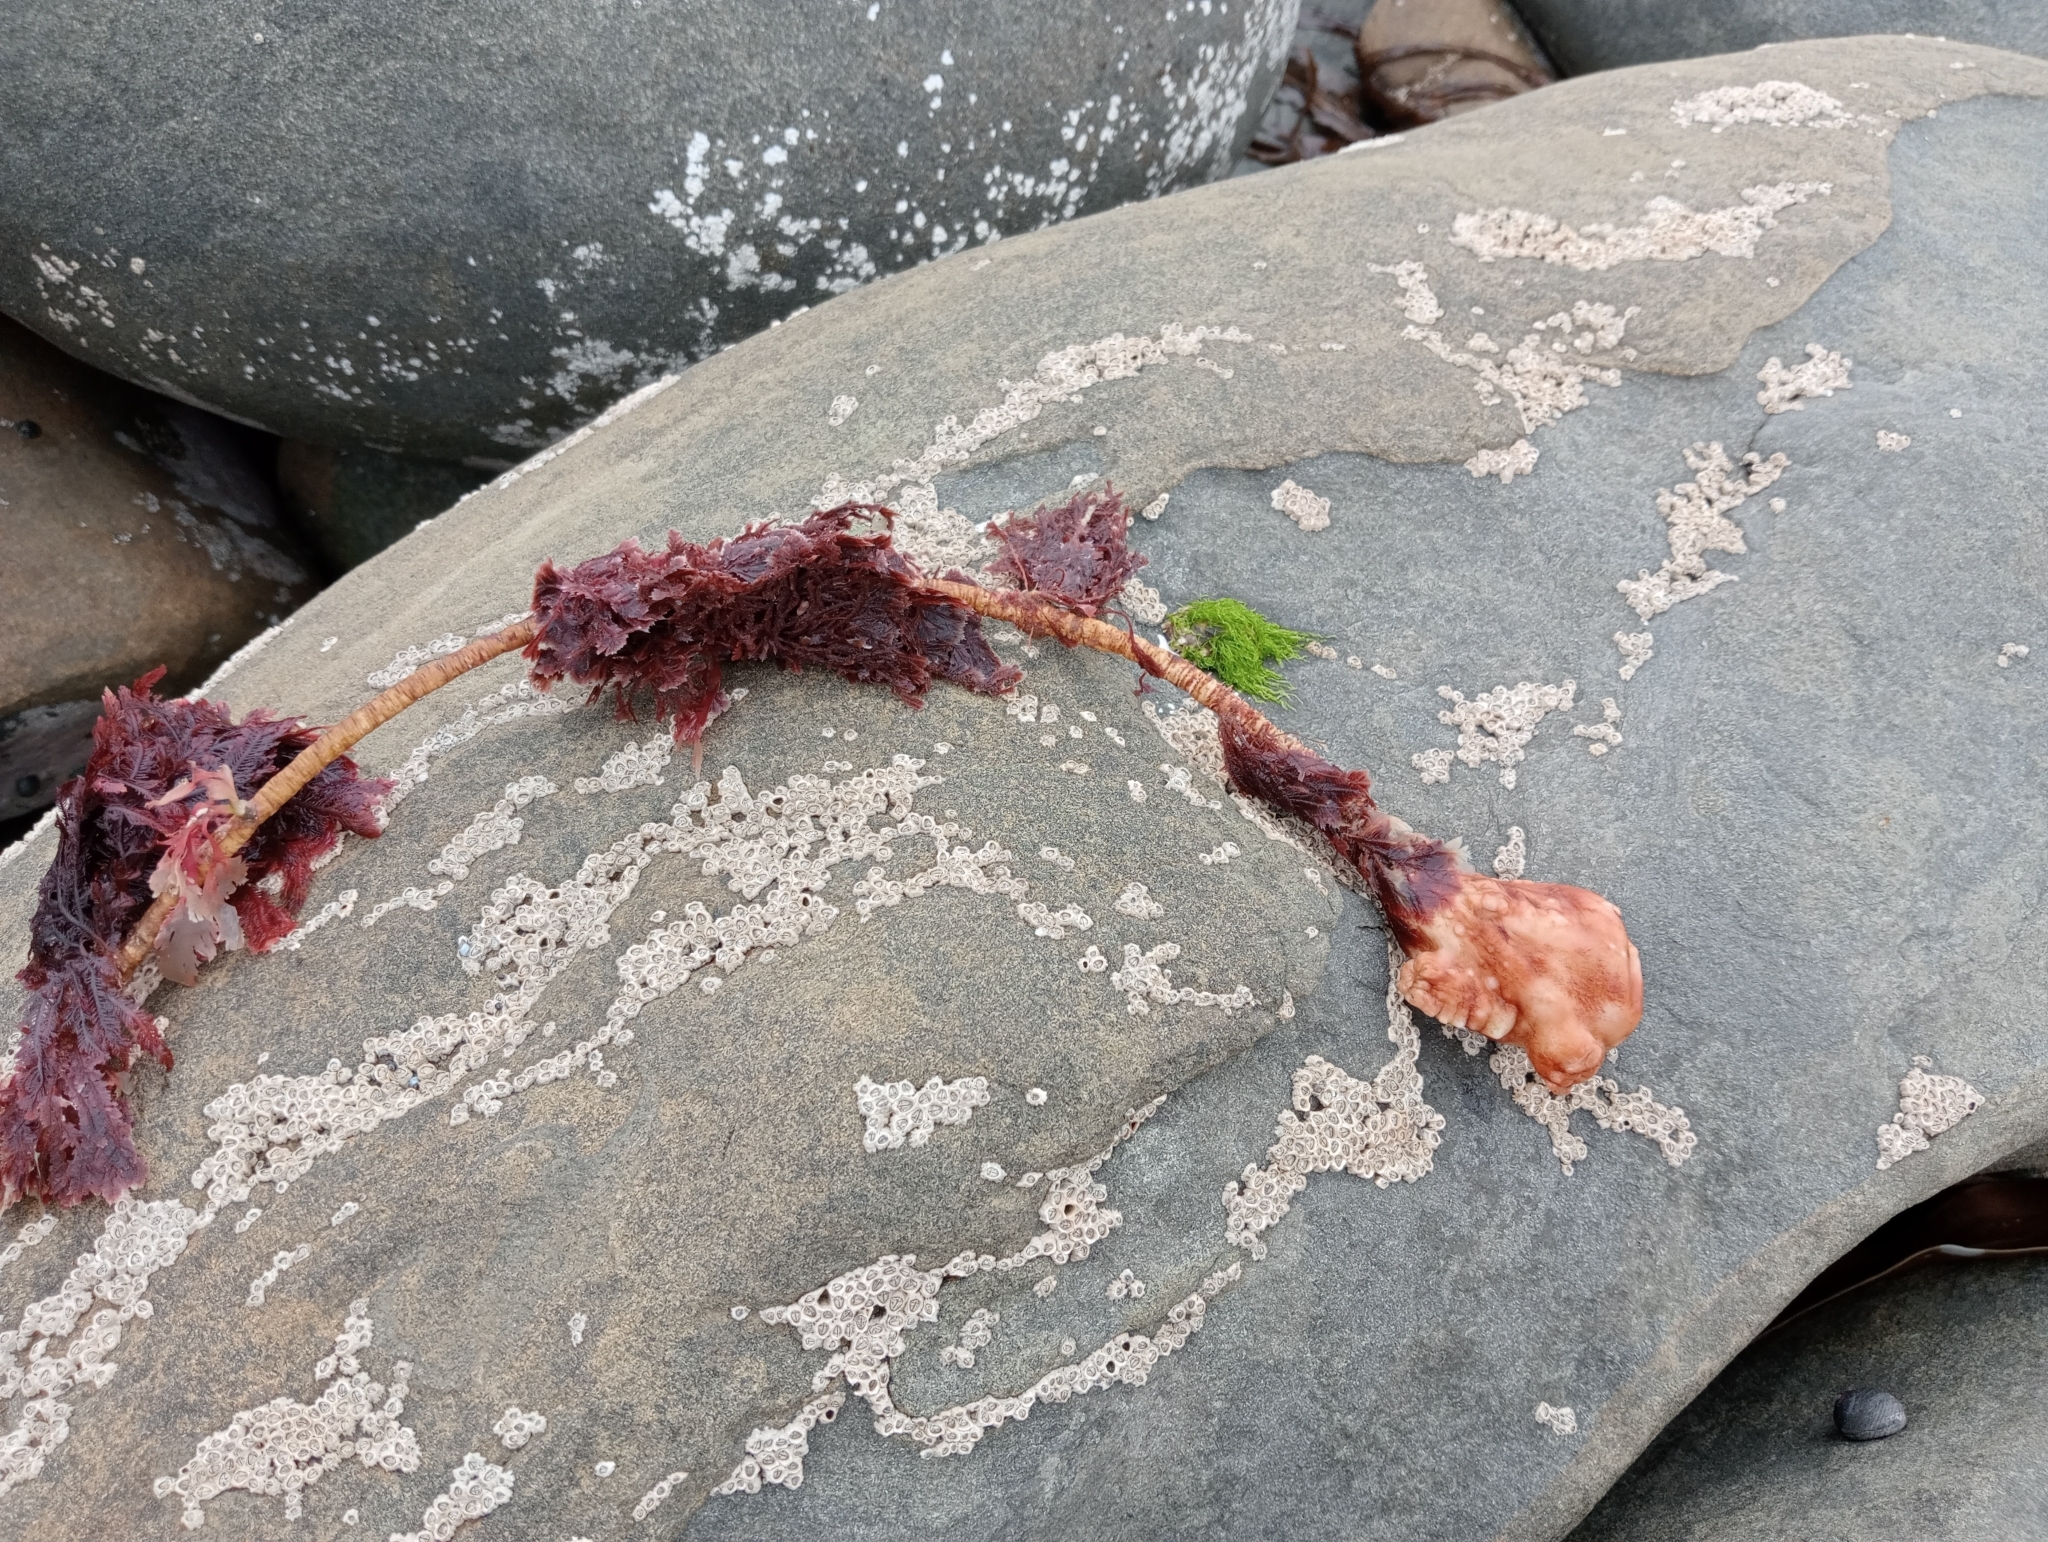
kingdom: Animalia
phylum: Chordata
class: Ascidiacea
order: Stolidobranchia
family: Pyuridae
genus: Pyura
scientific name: Pyura pachydermatina
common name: Sea tulip
